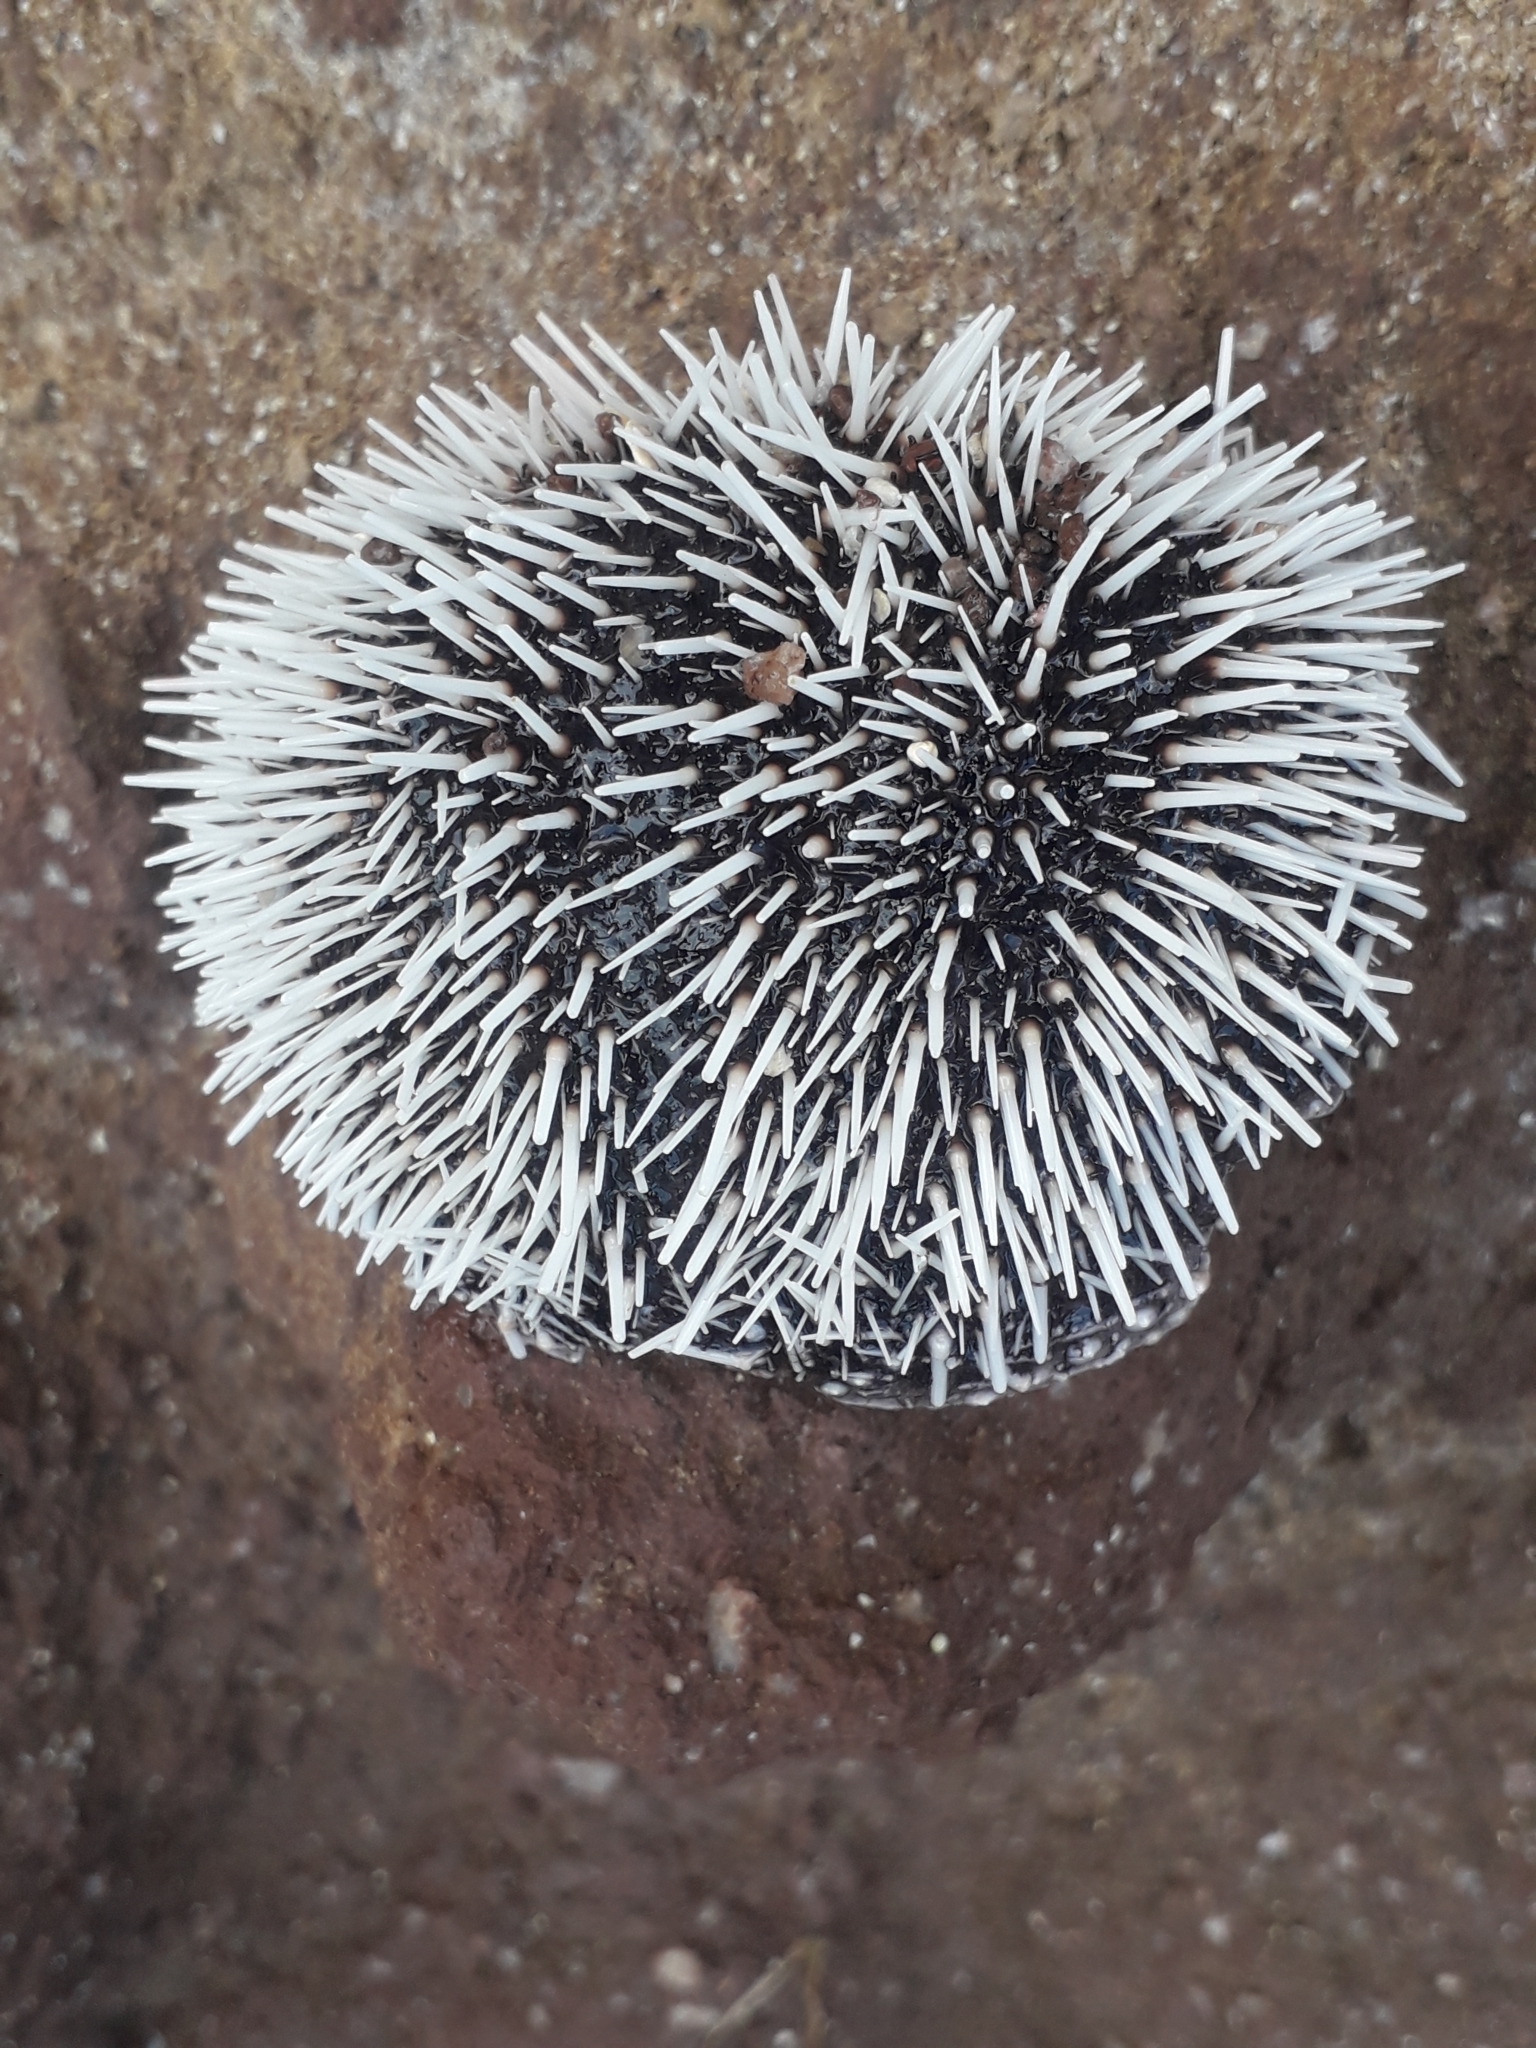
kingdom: Animalia
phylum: Echinodermata
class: Echinoidea
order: Camarodonta
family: Toxopneustidae
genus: Tripneustes
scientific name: Tripneustes ventricosus
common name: West indian sea egg
